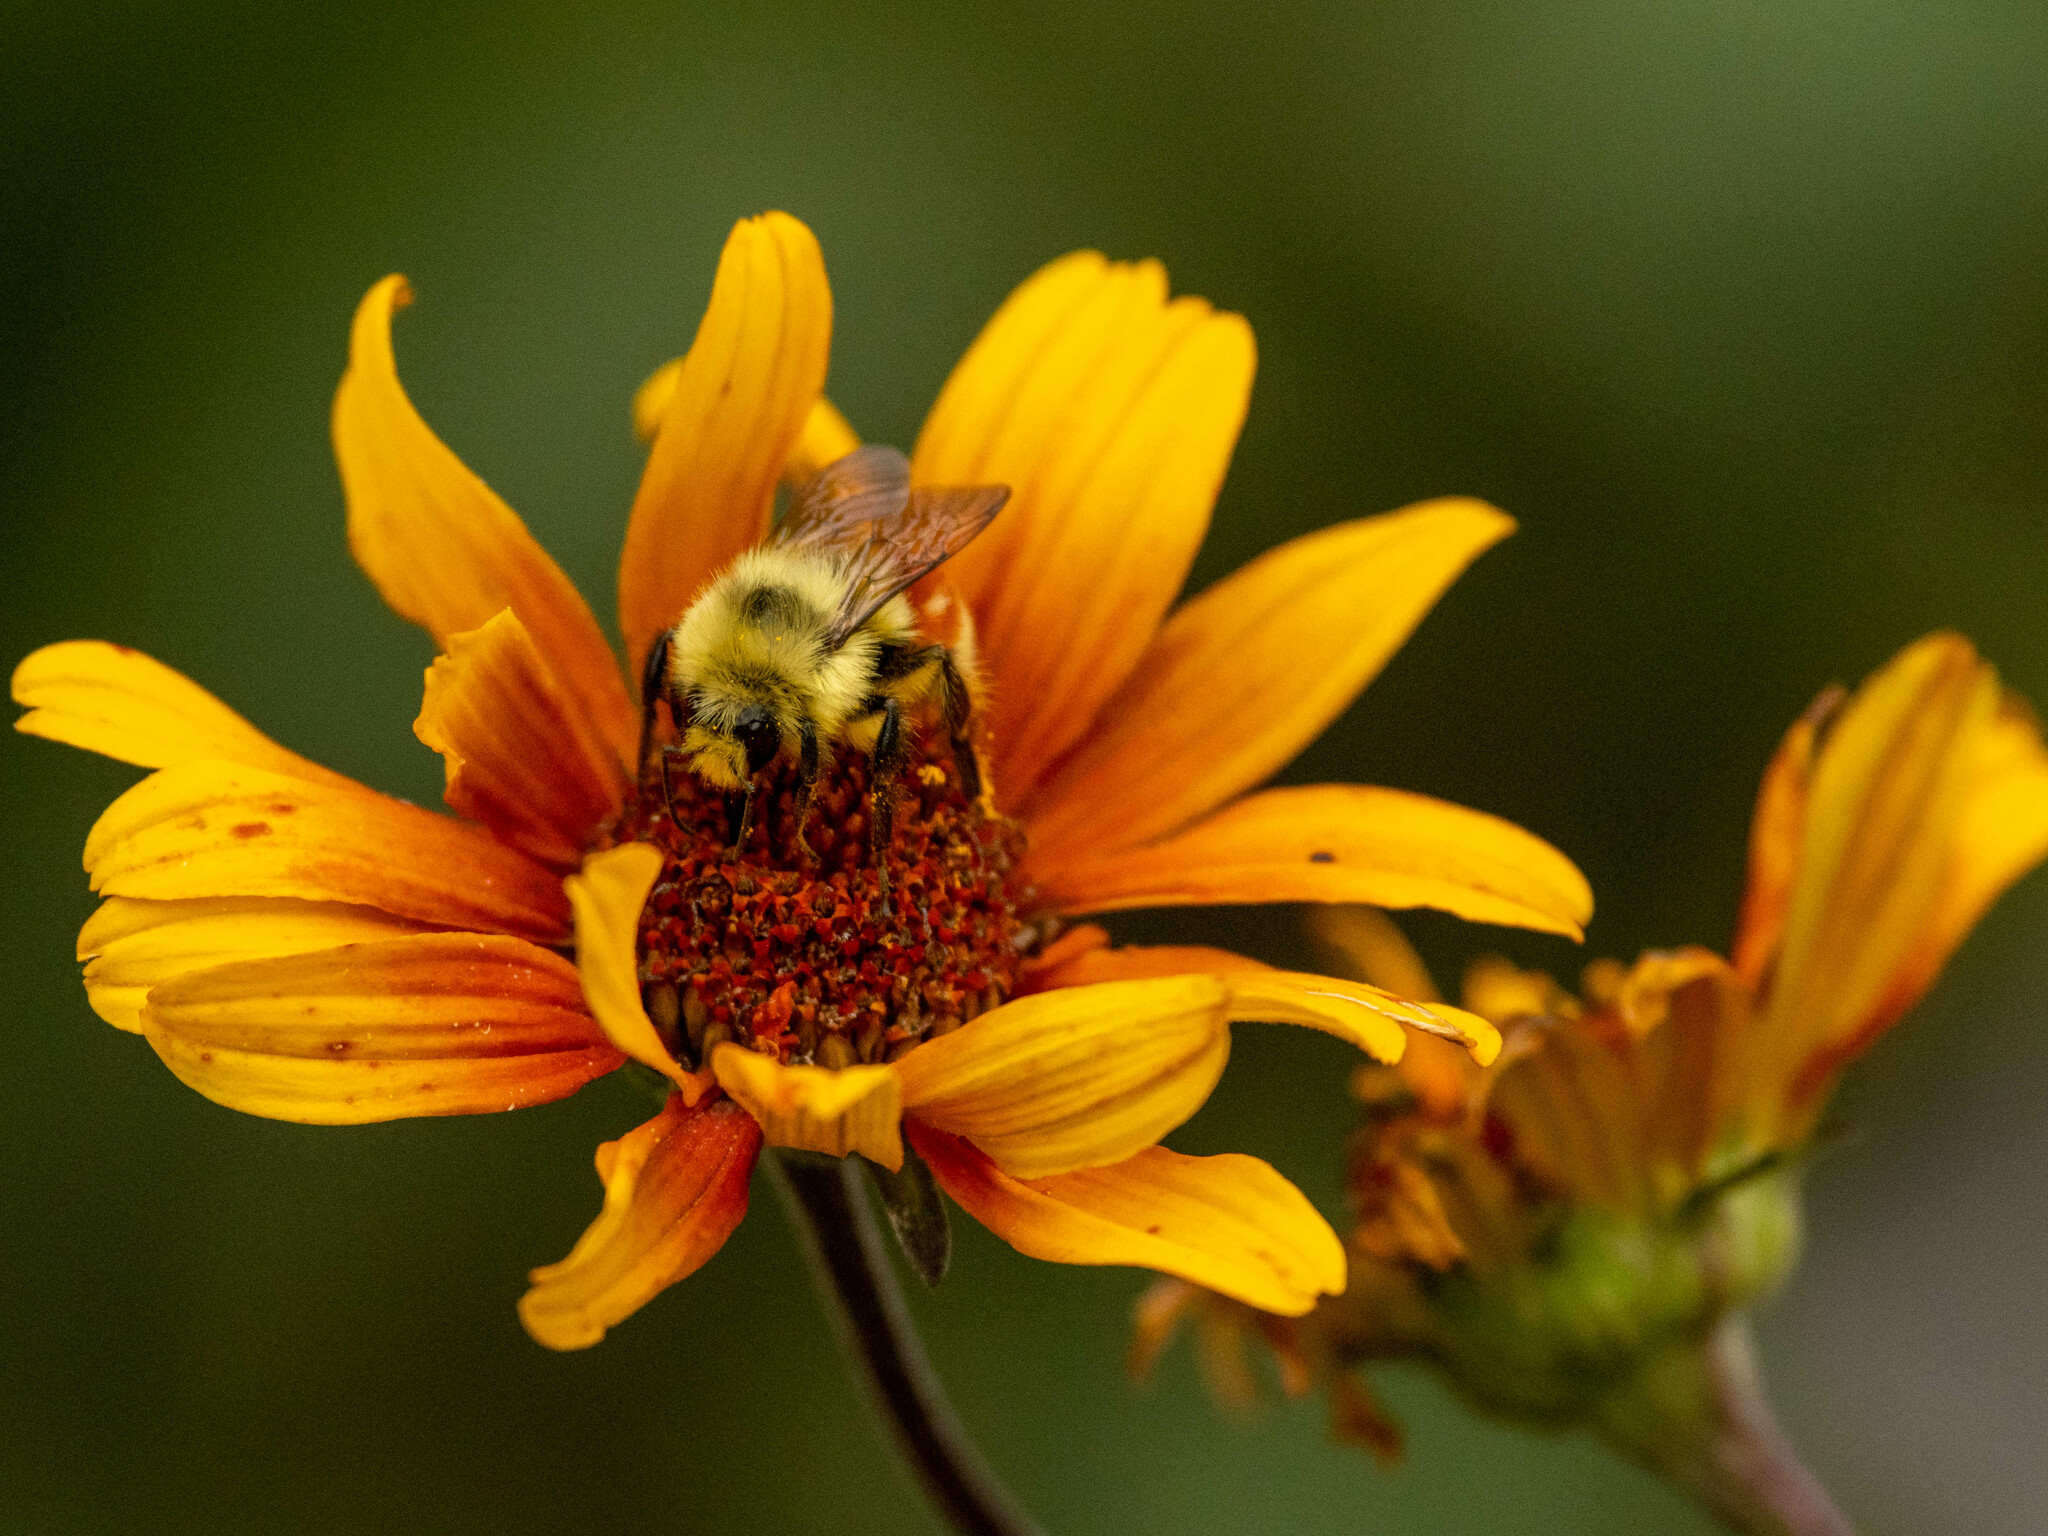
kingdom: Animalia
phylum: Arthropoda
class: Insecta
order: Hymenoptera
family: Apidae
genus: Bombus
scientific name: Bombus huntii
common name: Hunt bumble bee
